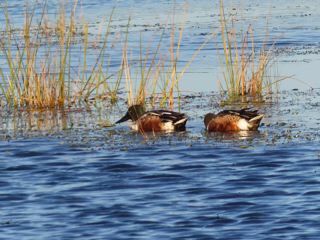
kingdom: Animalia
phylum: Chordata
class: Aves
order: Anseriformes
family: Anatidae
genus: Spatula
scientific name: Spatula clypeata
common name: Northern shoveler
